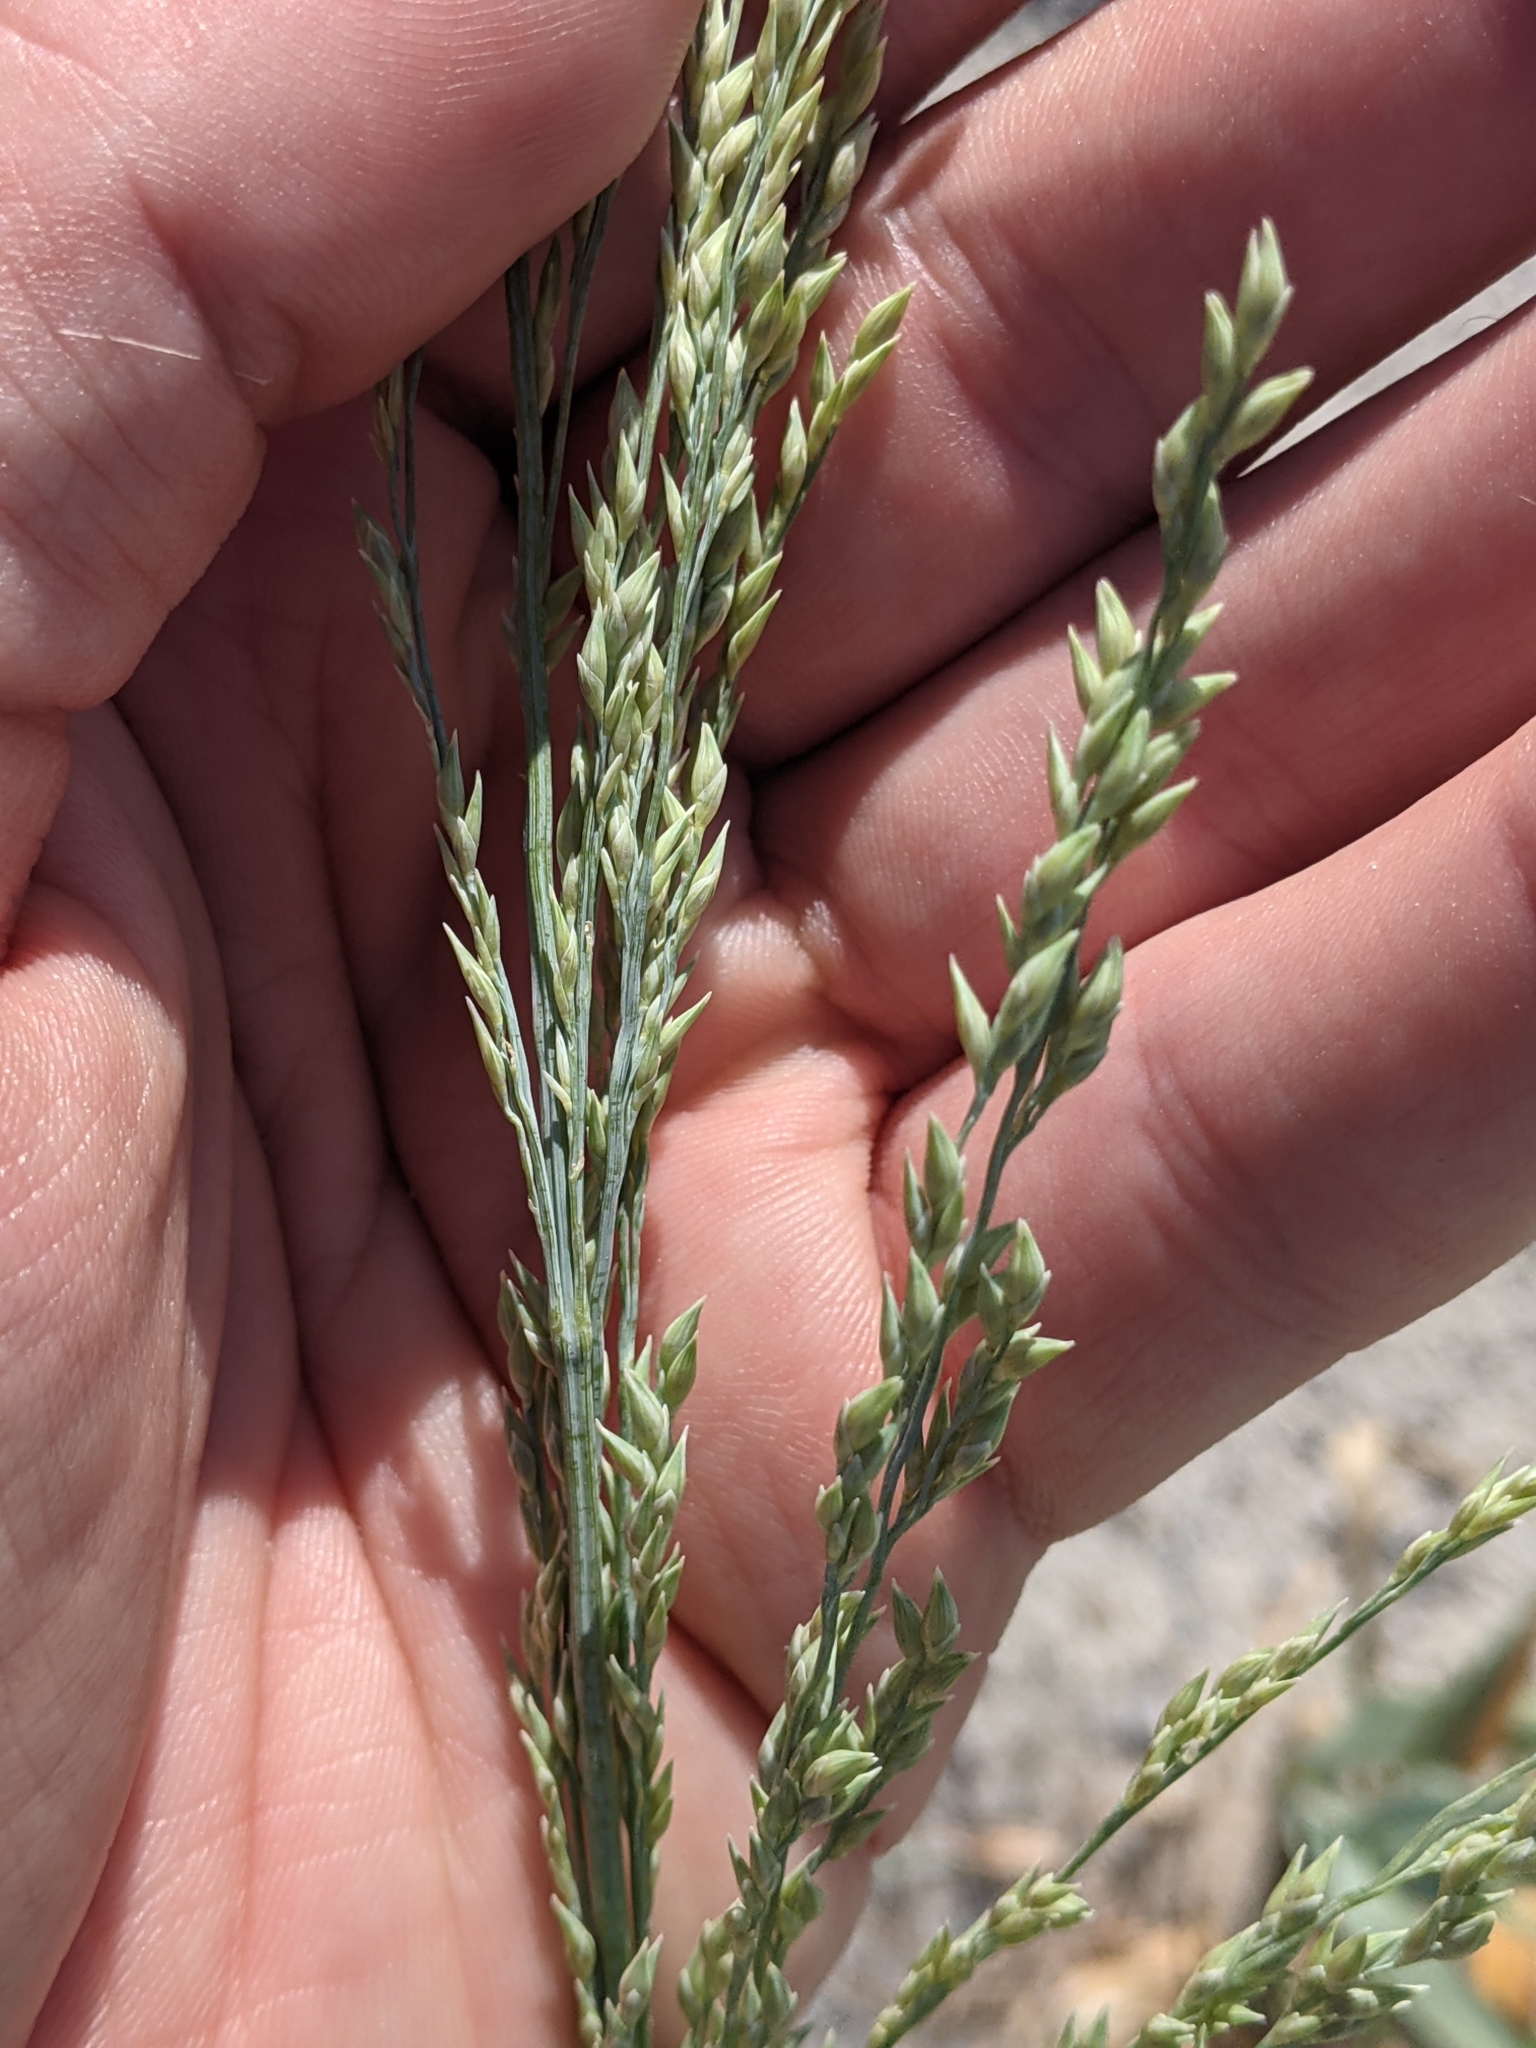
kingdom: Plantae
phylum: Tracheophyta
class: Liliopsida
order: Poales
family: Poaceae
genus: Panicum
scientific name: Panicum amarum
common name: Bitter panicum
